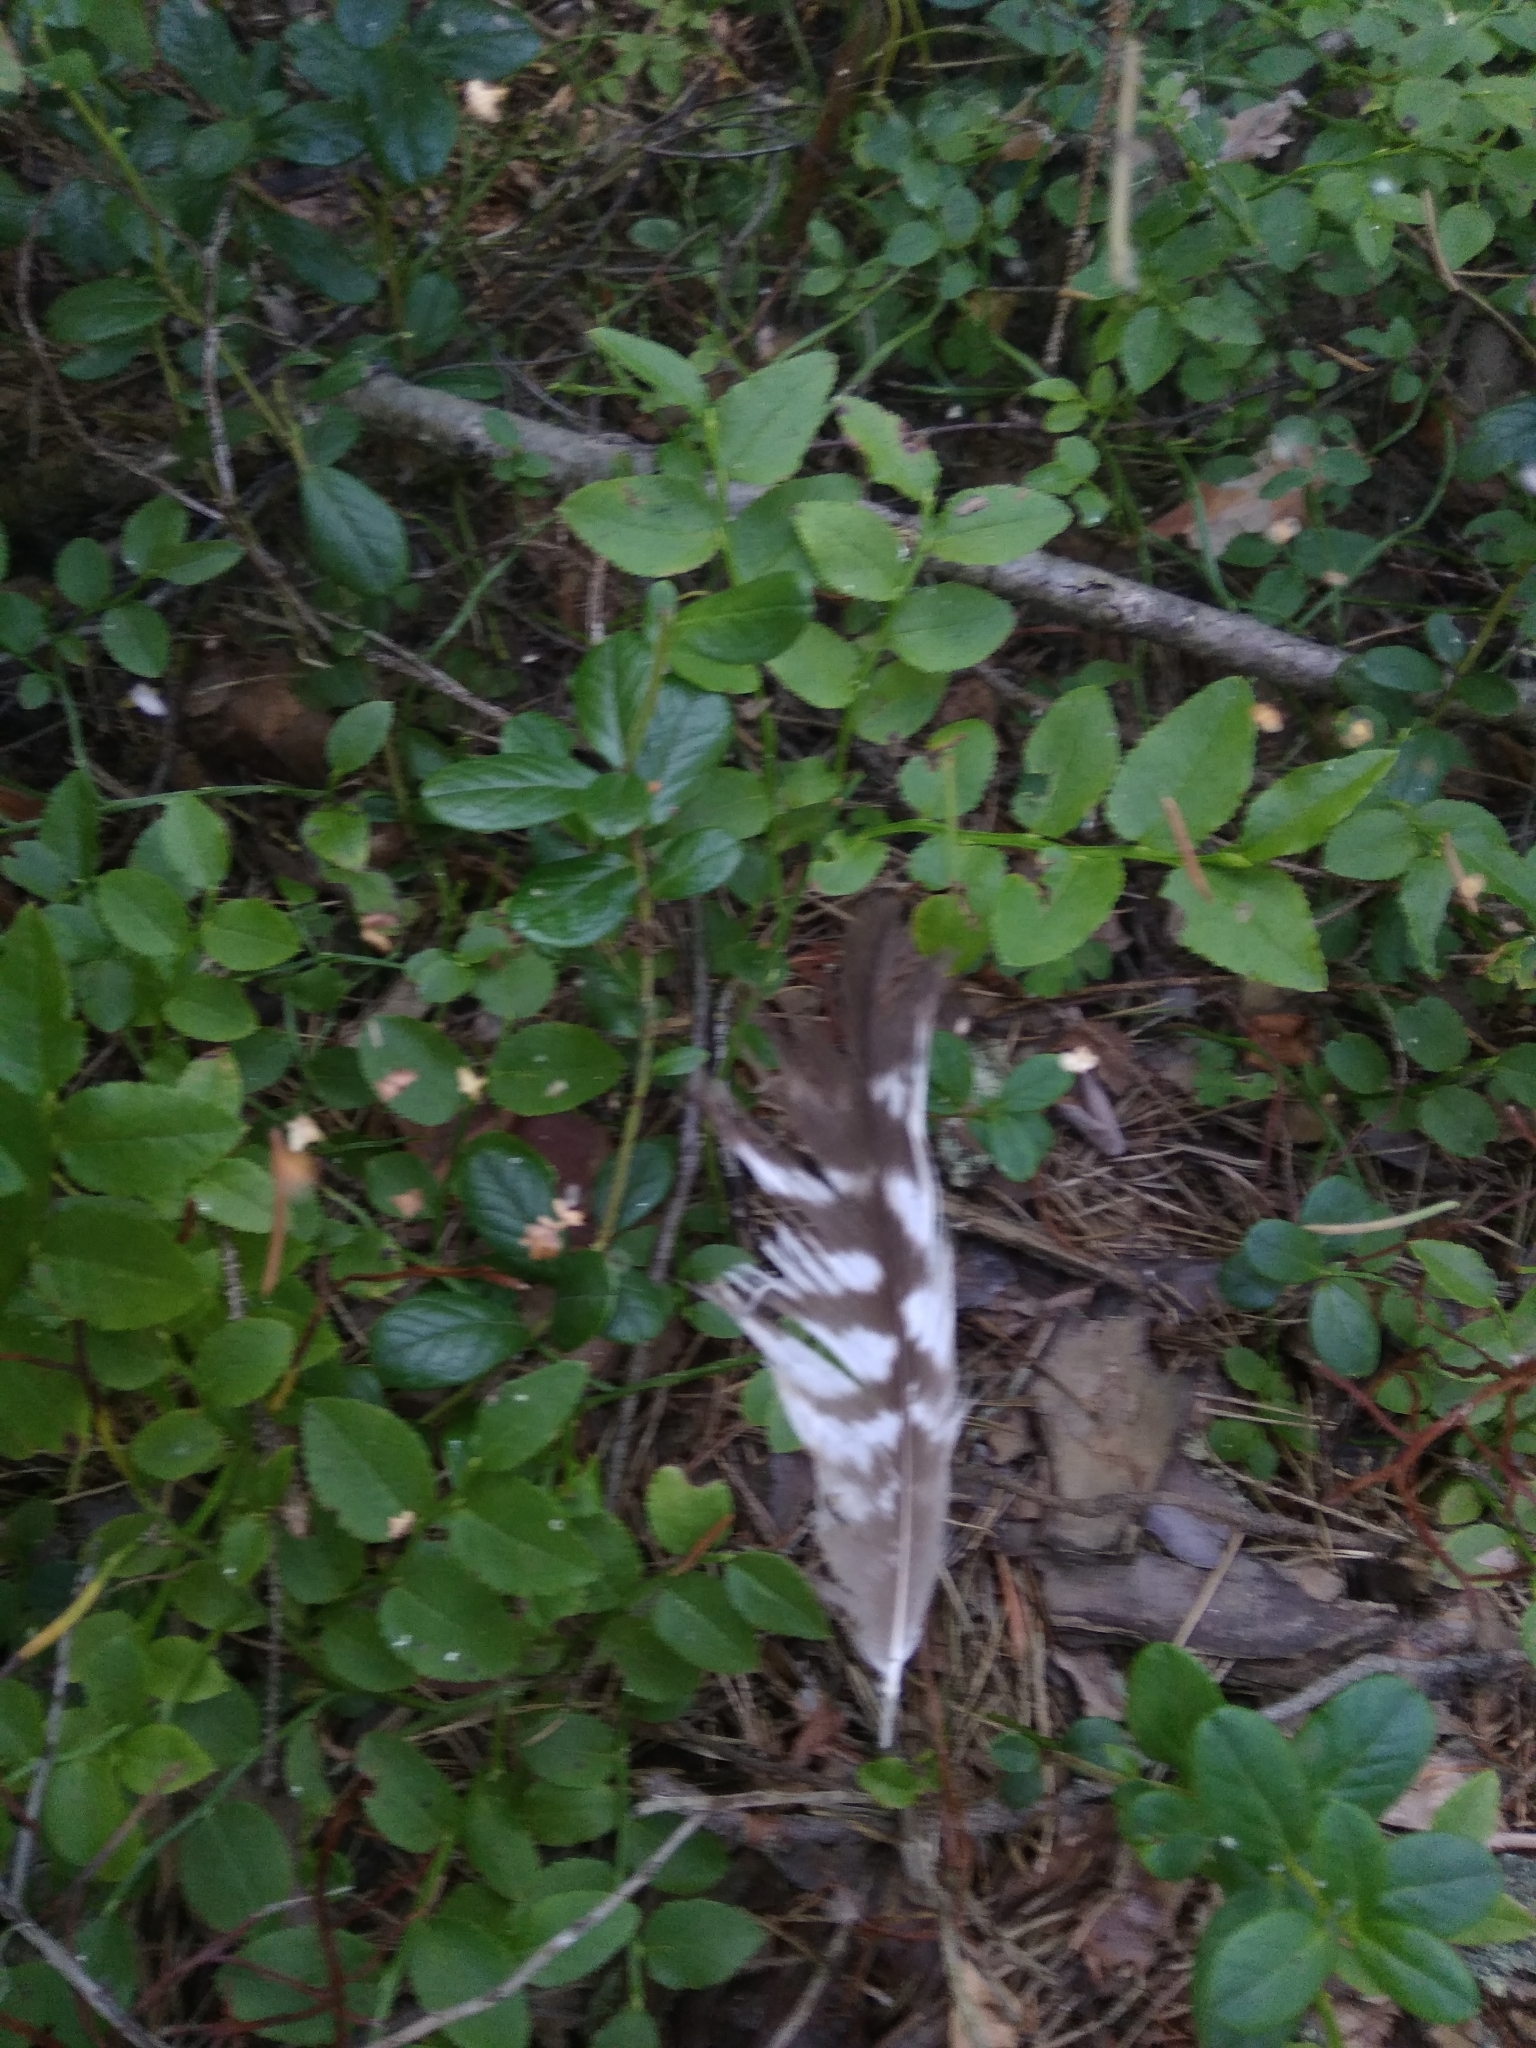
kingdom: Animalia
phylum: Chordata
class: Aves
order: Accipitriformes
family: Accipitridae
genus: Buteo
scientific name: Buteo buteo
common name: Common buzzard
